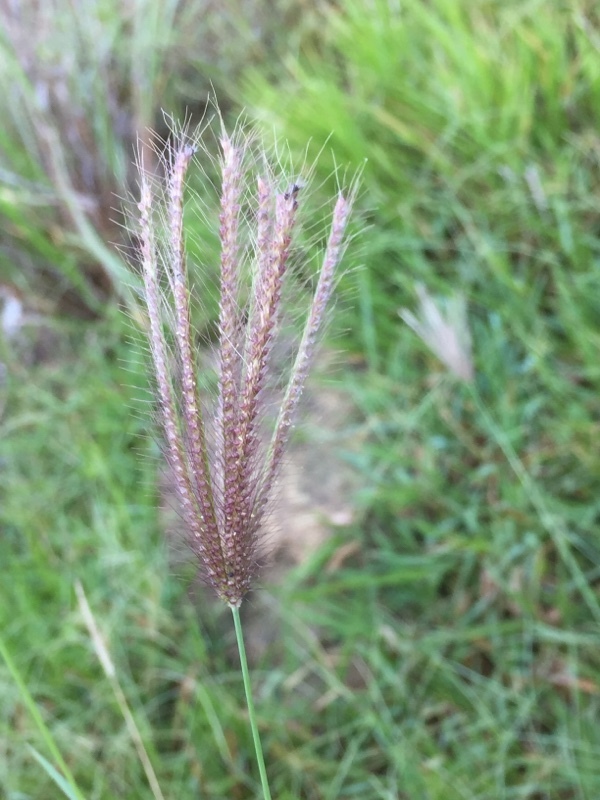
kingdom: Plantae
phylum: Tracheophyta
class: Liliopsida
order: Poales
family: Poaceae
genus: Chloris
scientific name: Chloris virgata
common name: Feathery rhodes-grass
